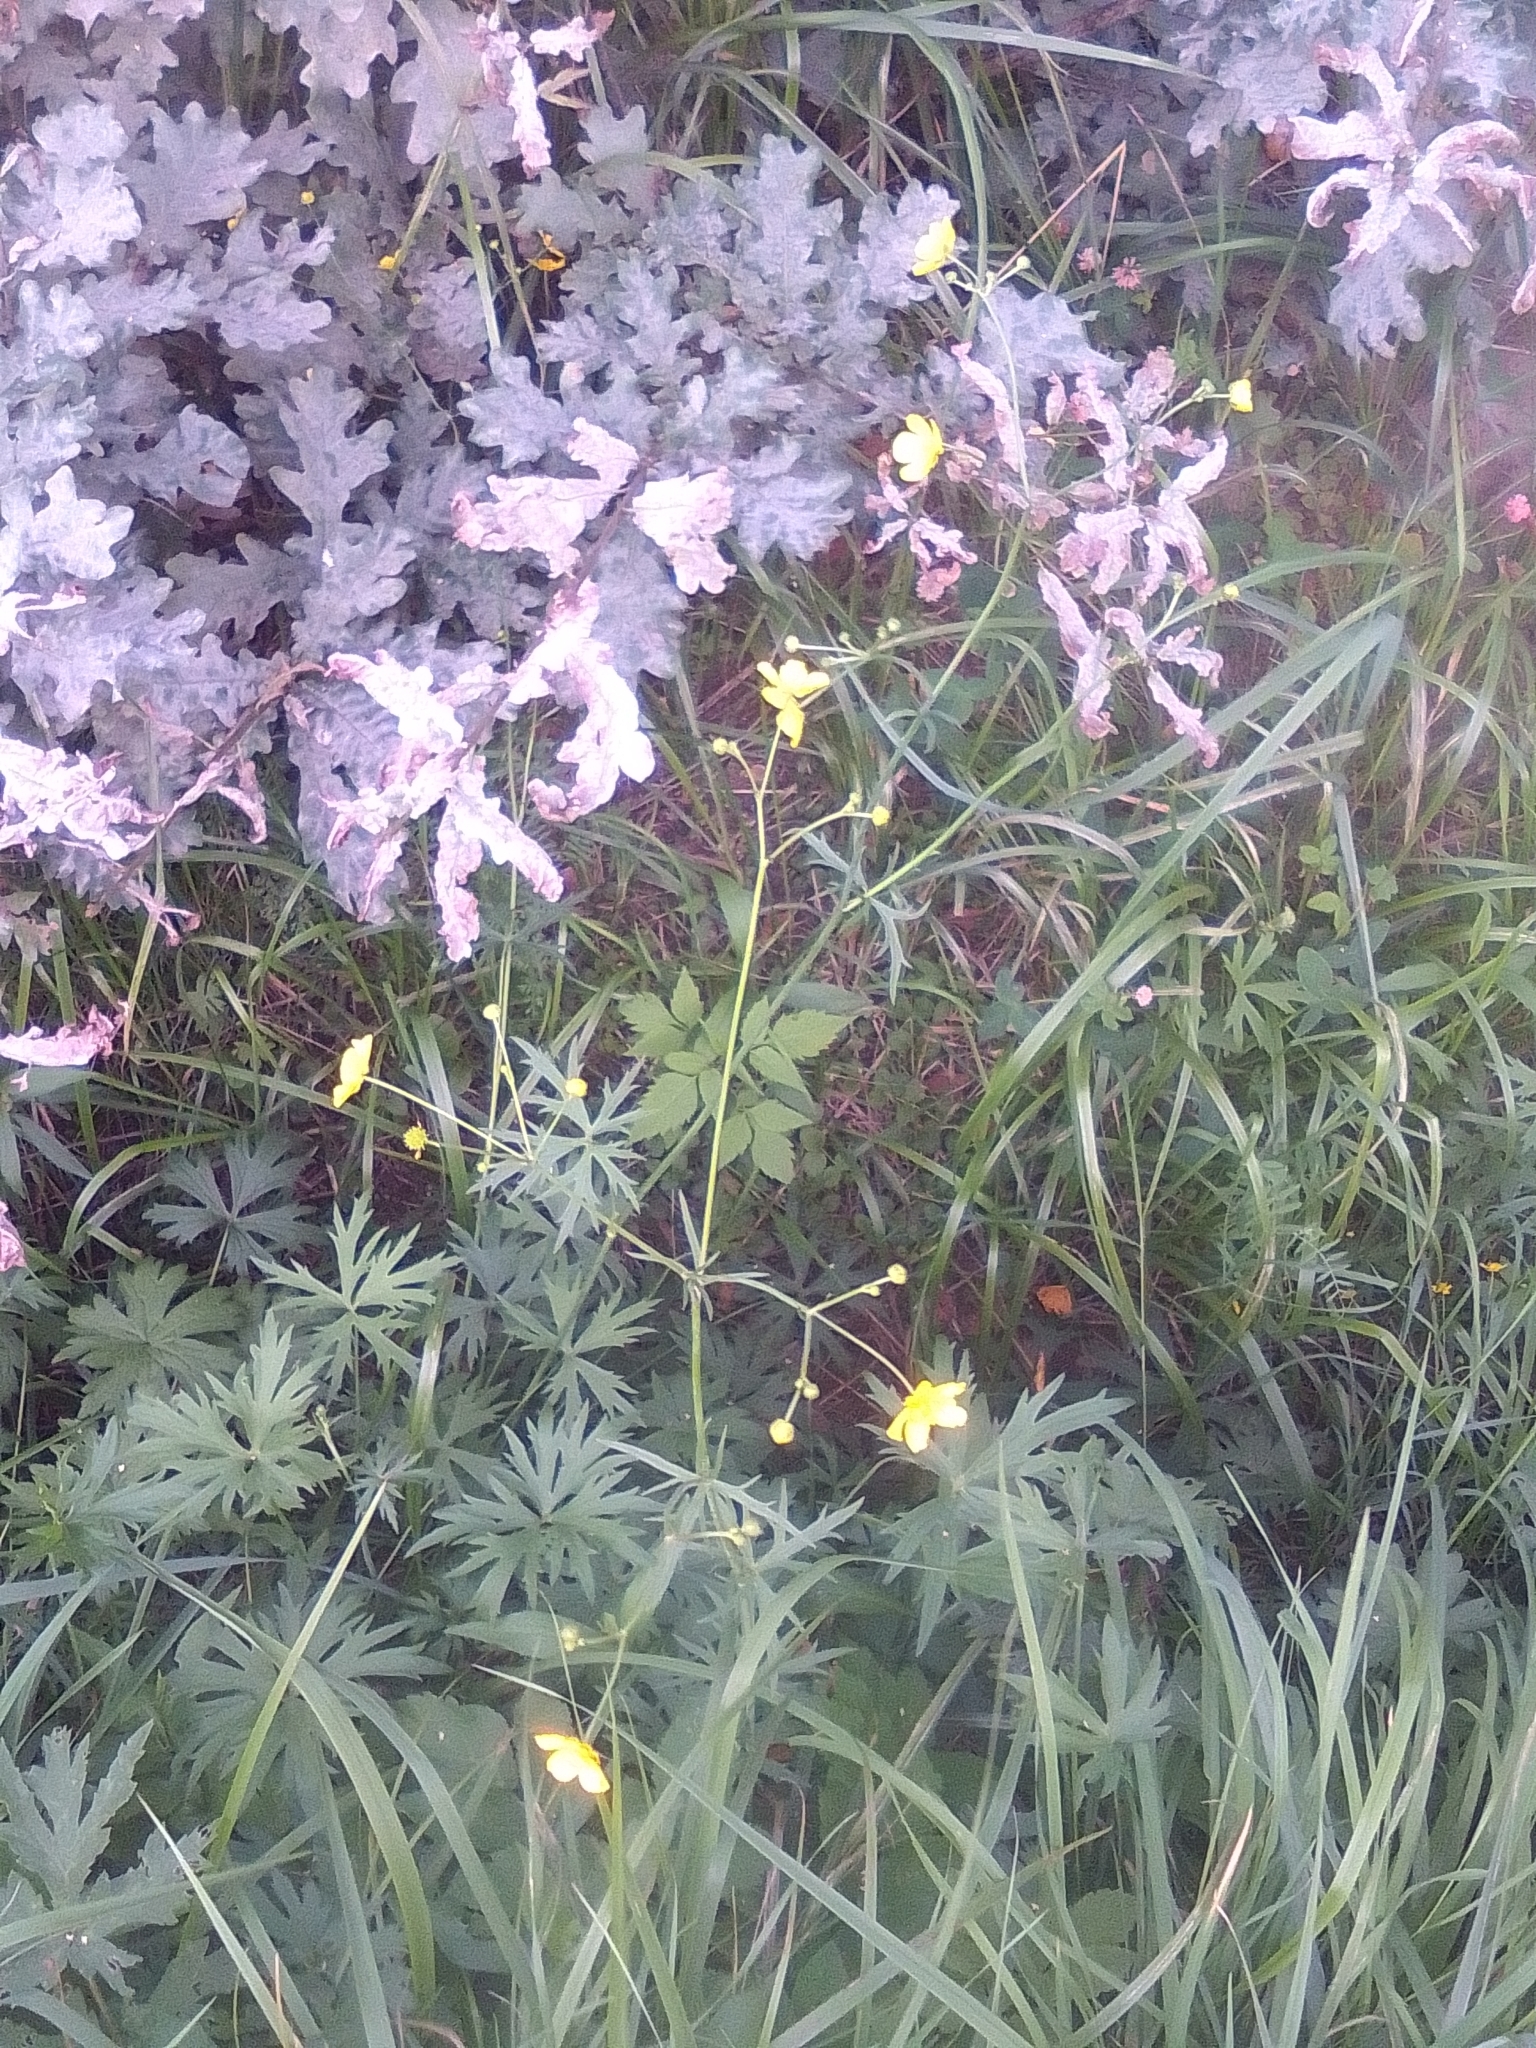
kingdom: Plantae
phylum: Tracheophyta
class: Magnoliopsida
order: Ranunculales
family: Ranunculaceae
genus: Ranunculus
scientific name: Ranunculus acris
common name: Meadow buttercup
